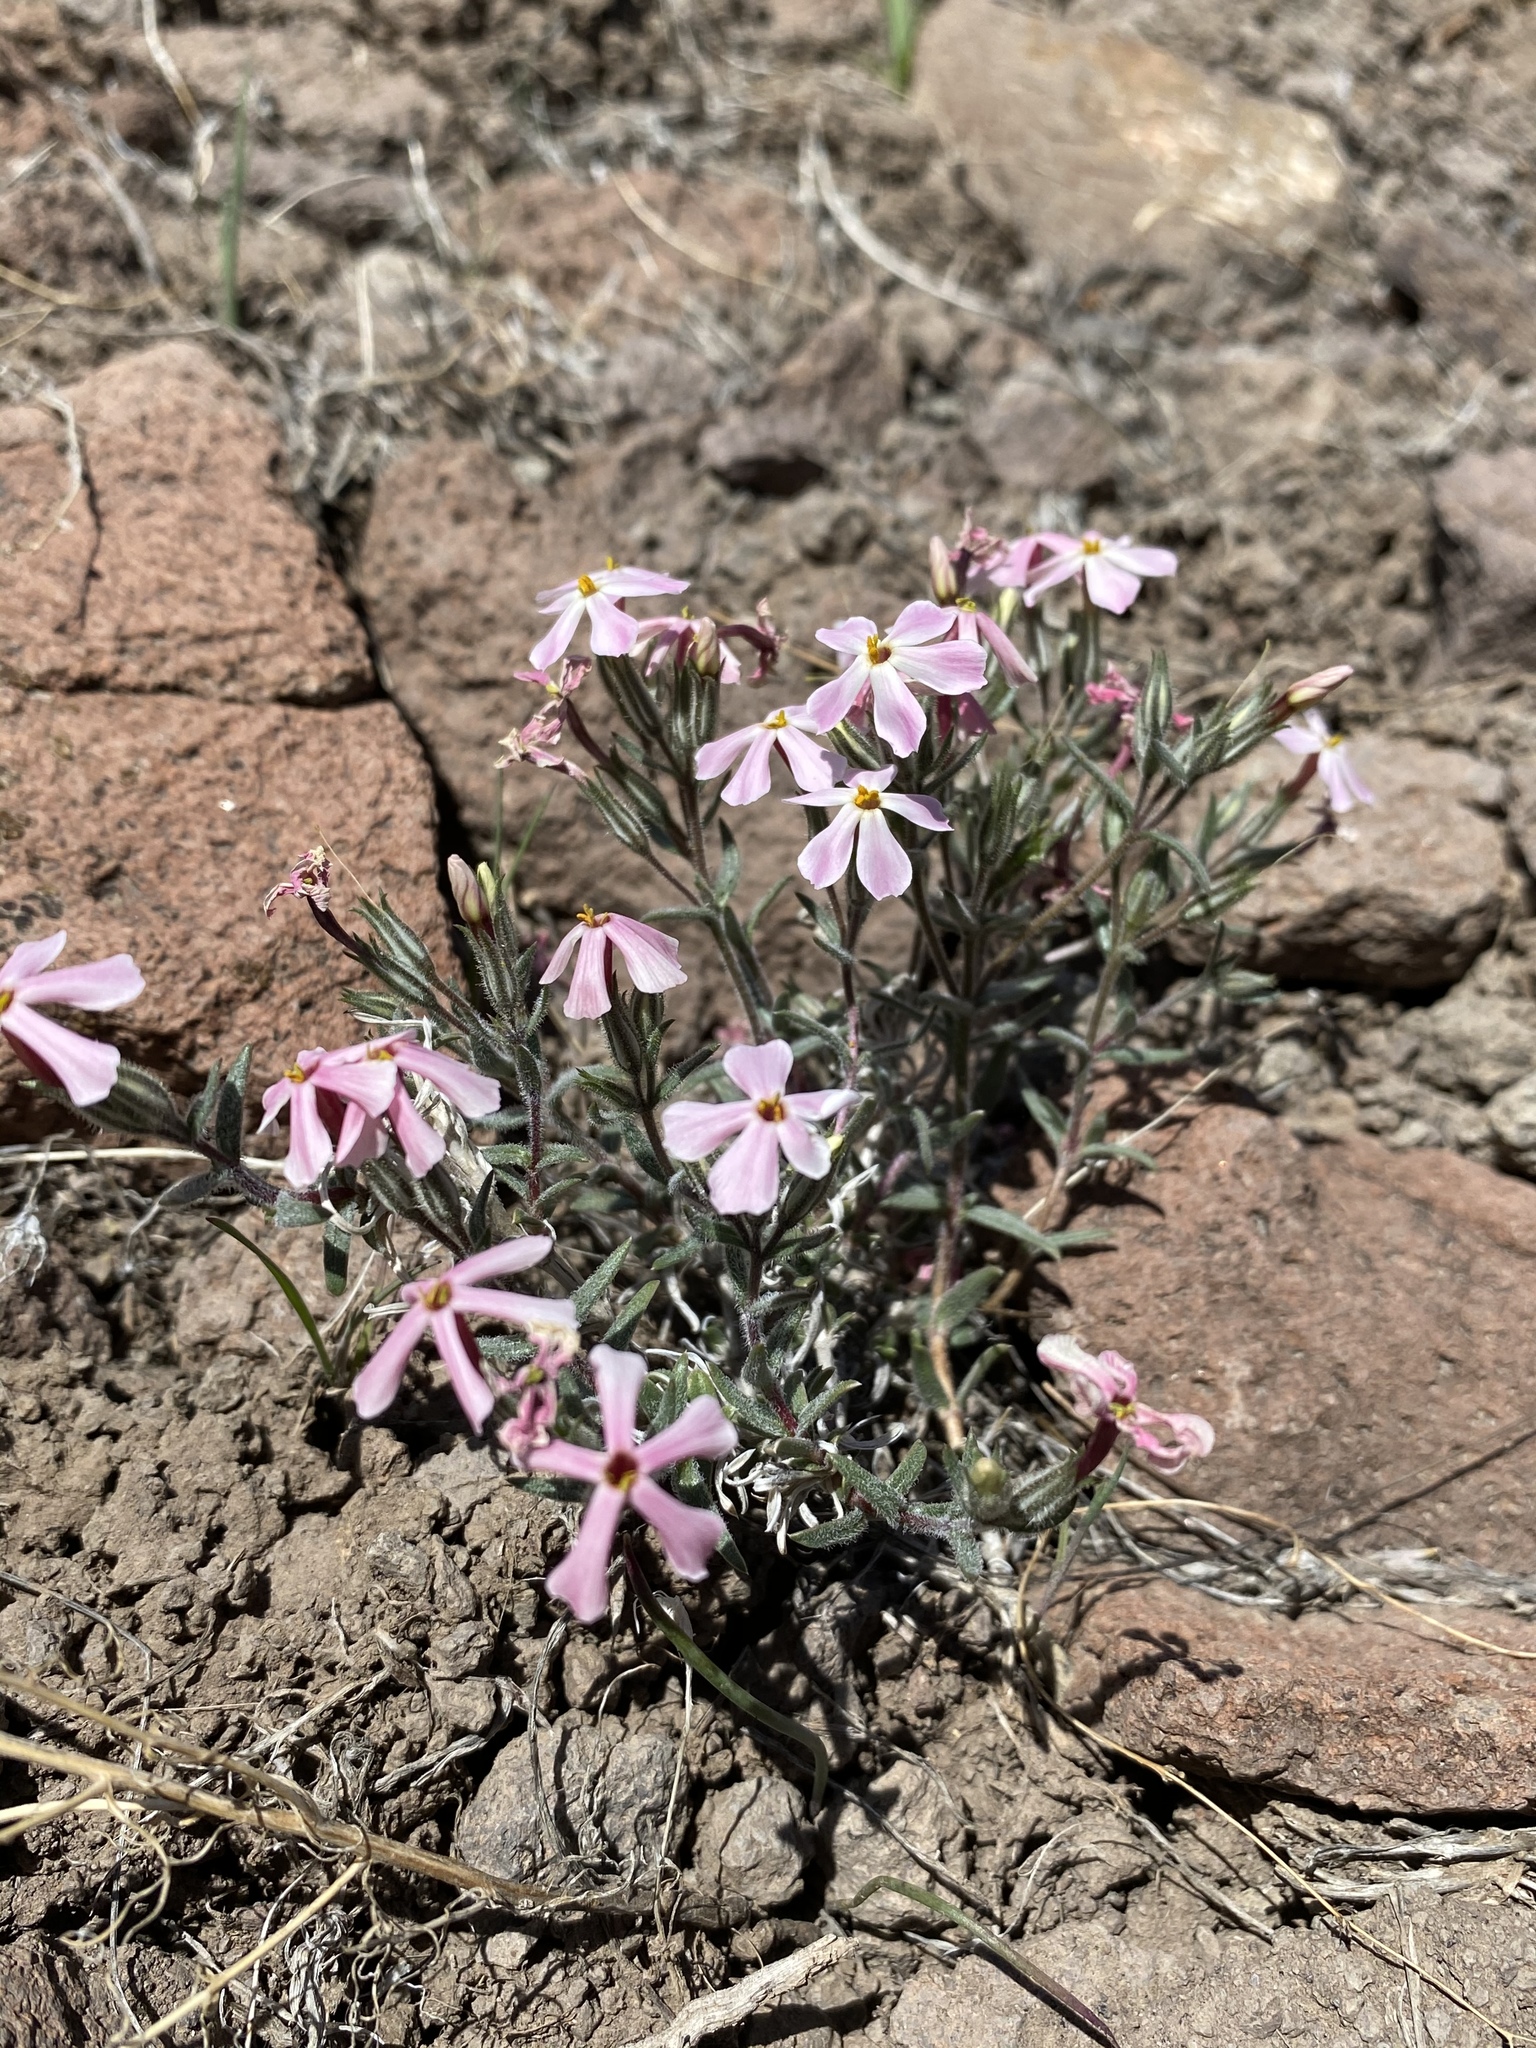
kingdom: Plantae
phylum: Tracheophyta
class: Magnoliopsida
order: Ericales
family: Polemoniaceae
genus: Phlox
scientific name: Phlox longifolia
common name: Longleaf phlox
